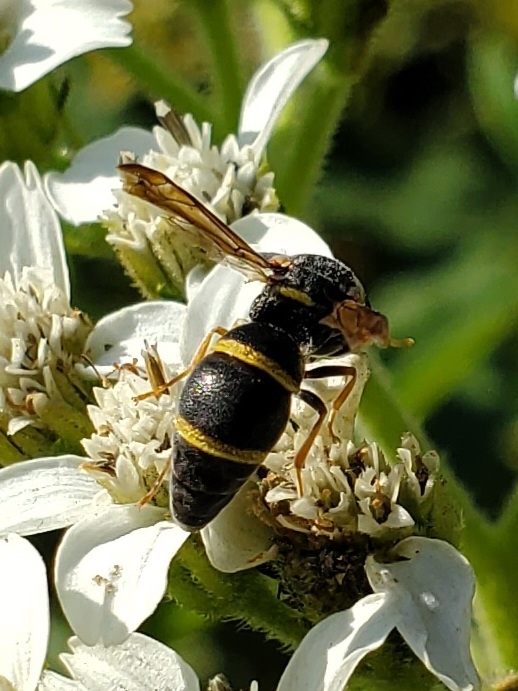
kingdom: Animalia
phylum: Arthropoda
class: Insecta
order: Hymenoptera
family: Eumenidae
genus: Parancistrocerus
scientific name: Parancistrocerus fulvipes
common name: Potter wasp
